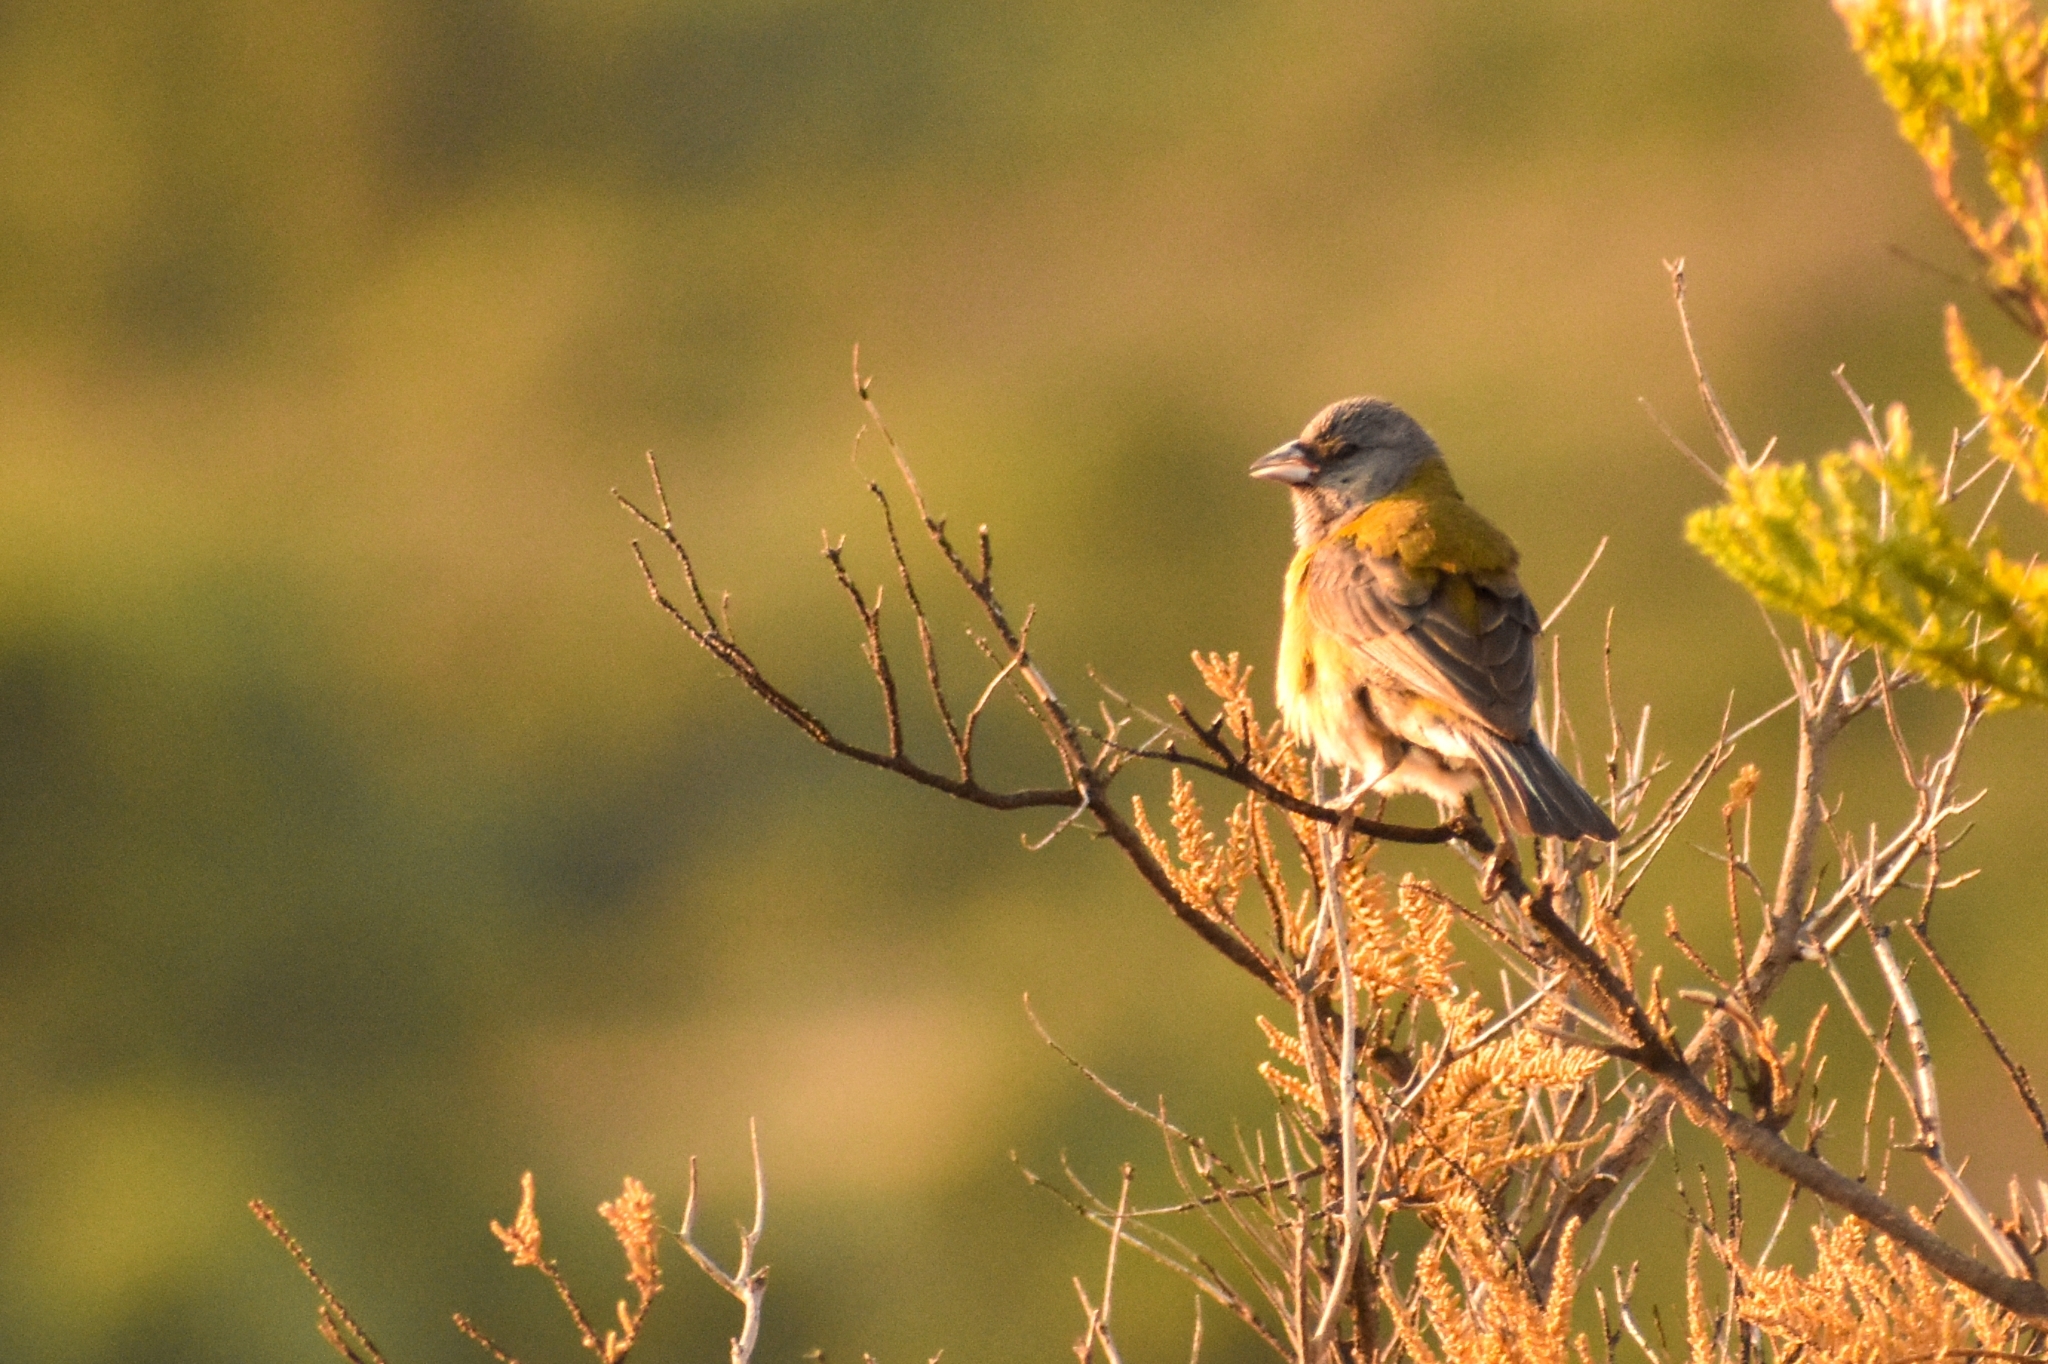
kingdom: Animalia
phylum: Chordata
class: Aves
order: Passeriformes
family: Thraupidae
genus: Phrygilus
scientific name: Phrygilus gayi
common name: Grey-hooded sierra finch
